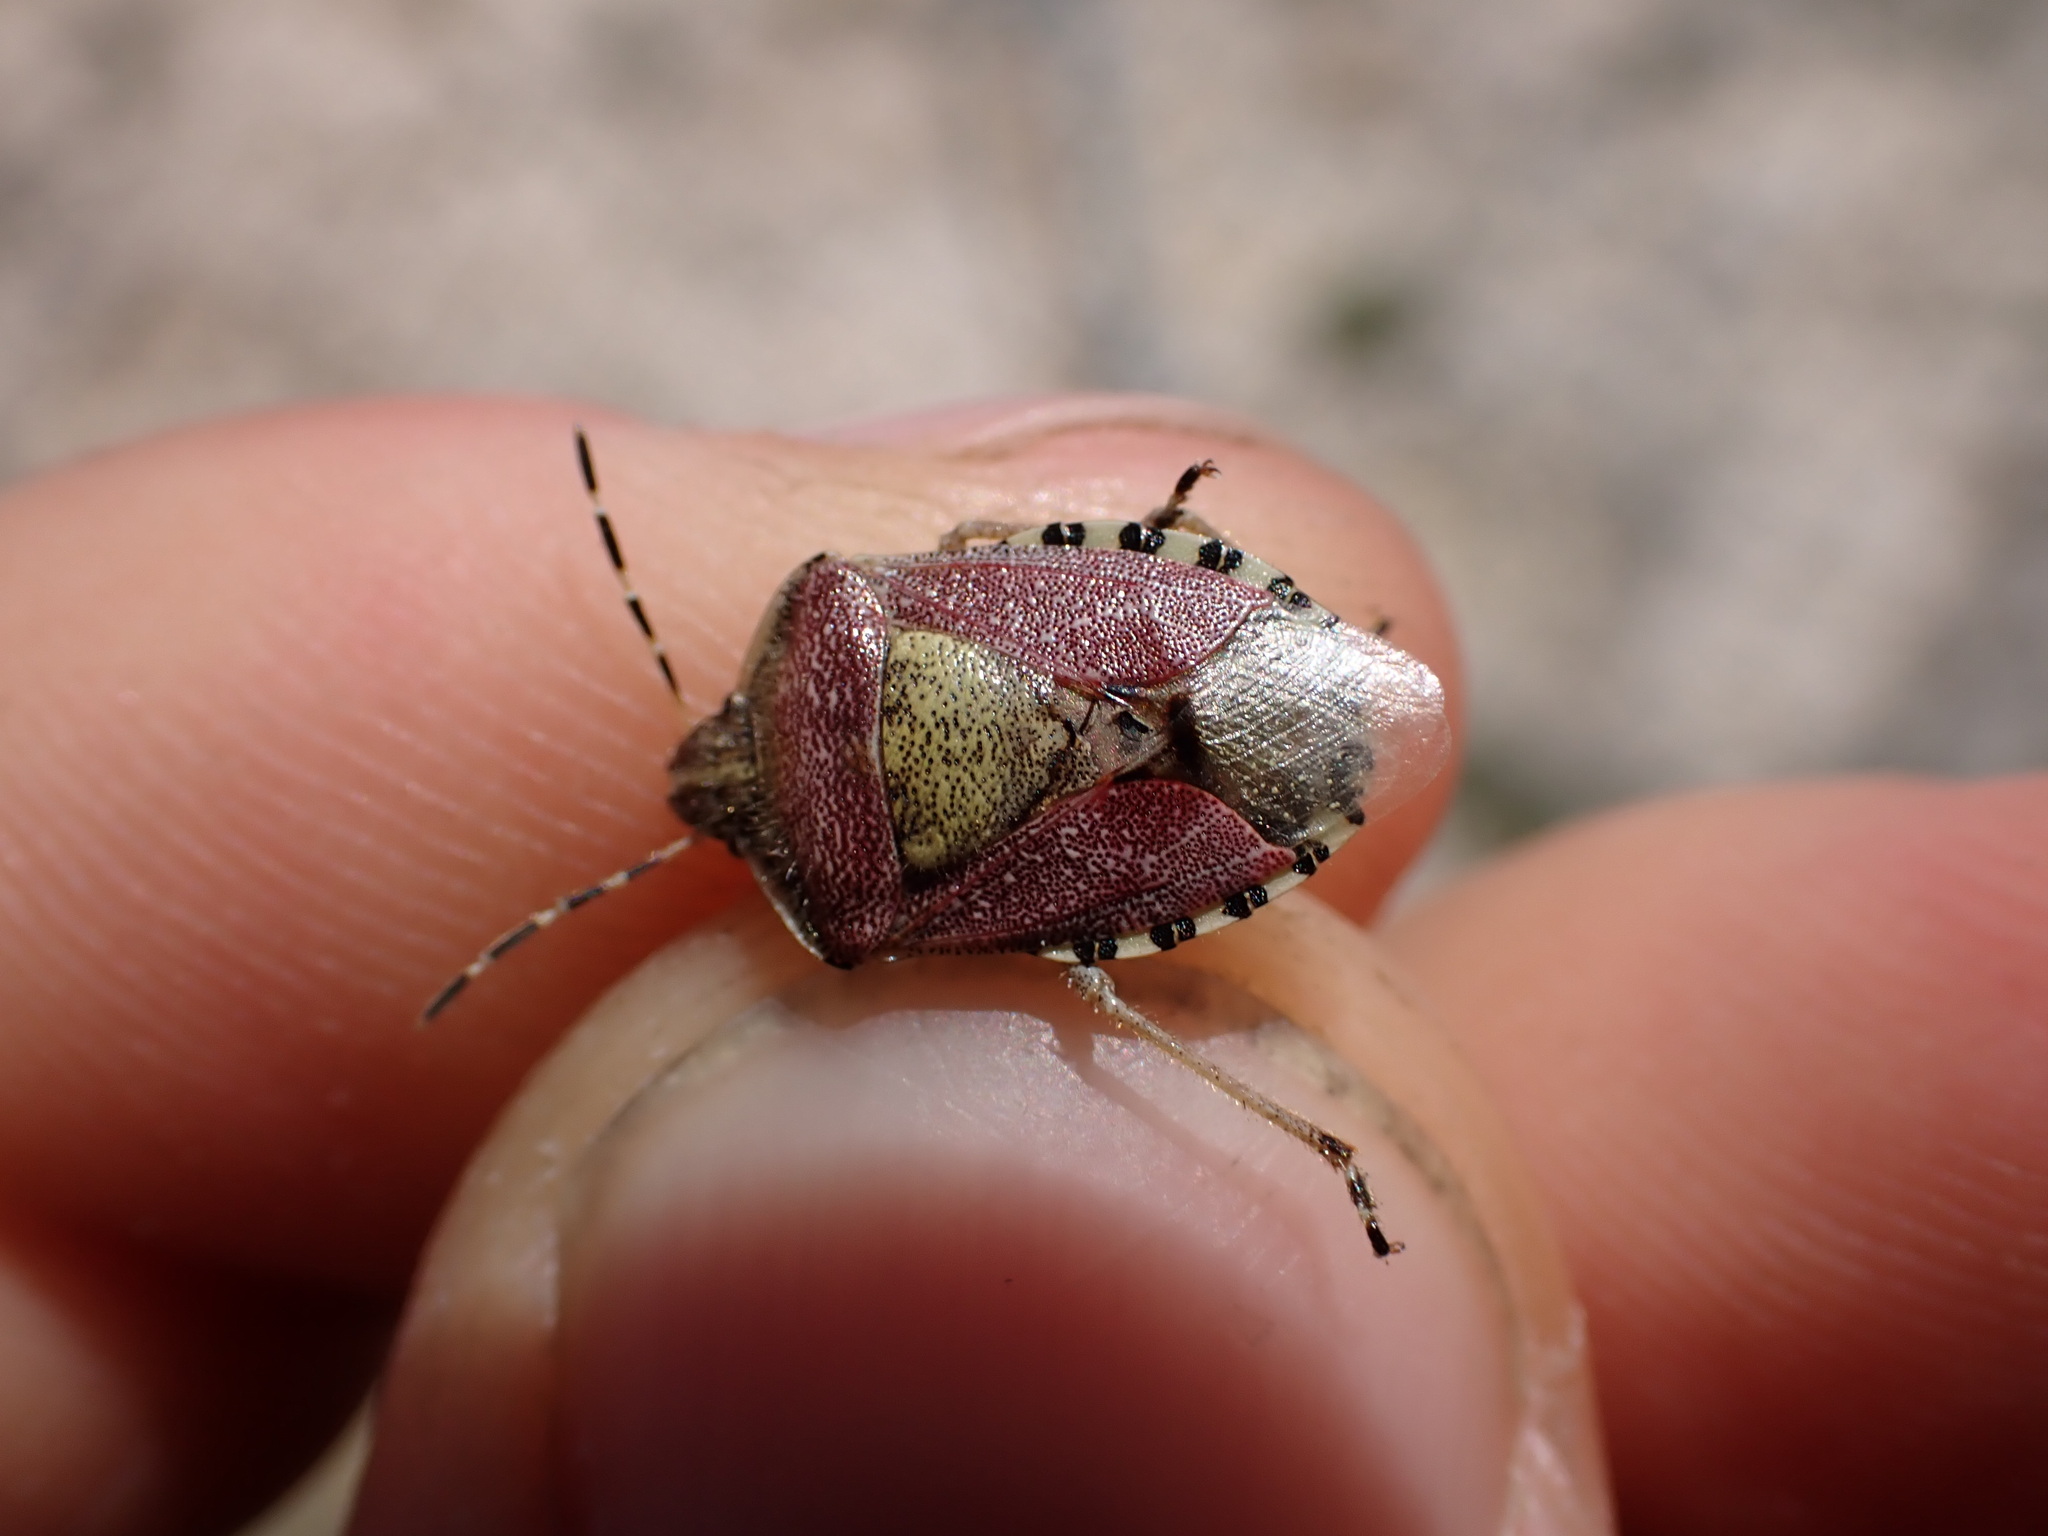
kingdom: Animalia
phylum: Arthropoda
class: Insecta
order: Hemiptera
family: Pentatomidae
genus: Dolycoris
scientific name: Dolycoris baccarum
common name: Sloe bug
